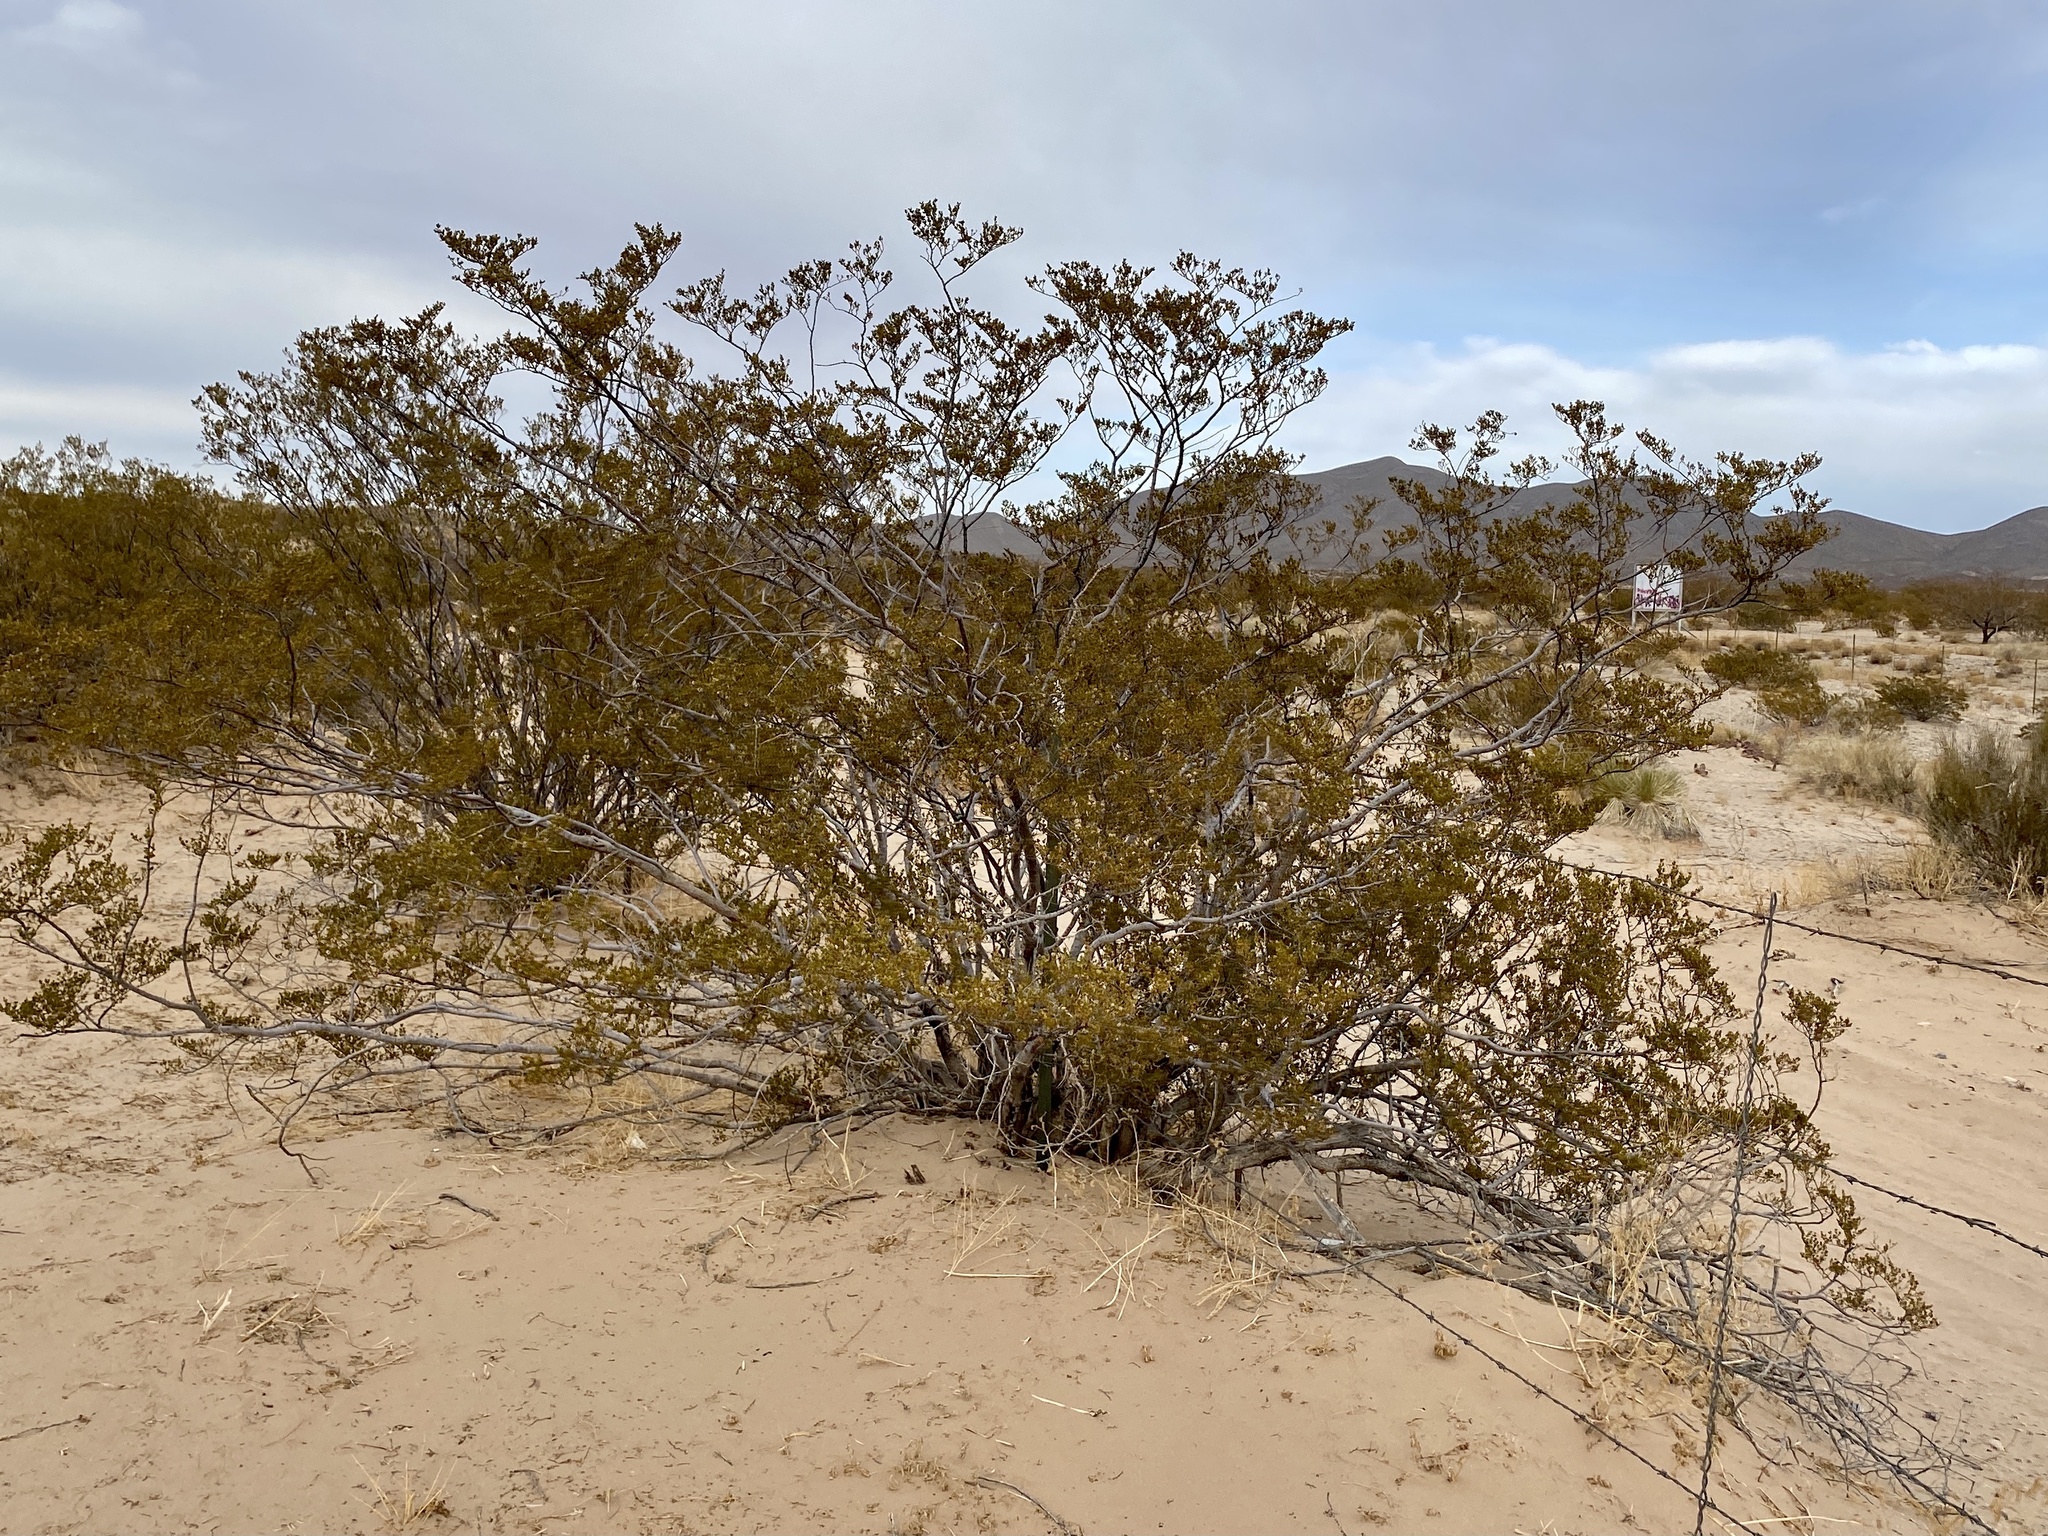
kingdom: Plantae
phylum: Tracheophyta
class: Magnoliopsida
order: Zygophyllales
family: Zygophyllaceae
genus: Larrea
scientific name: Larrea tridentata
